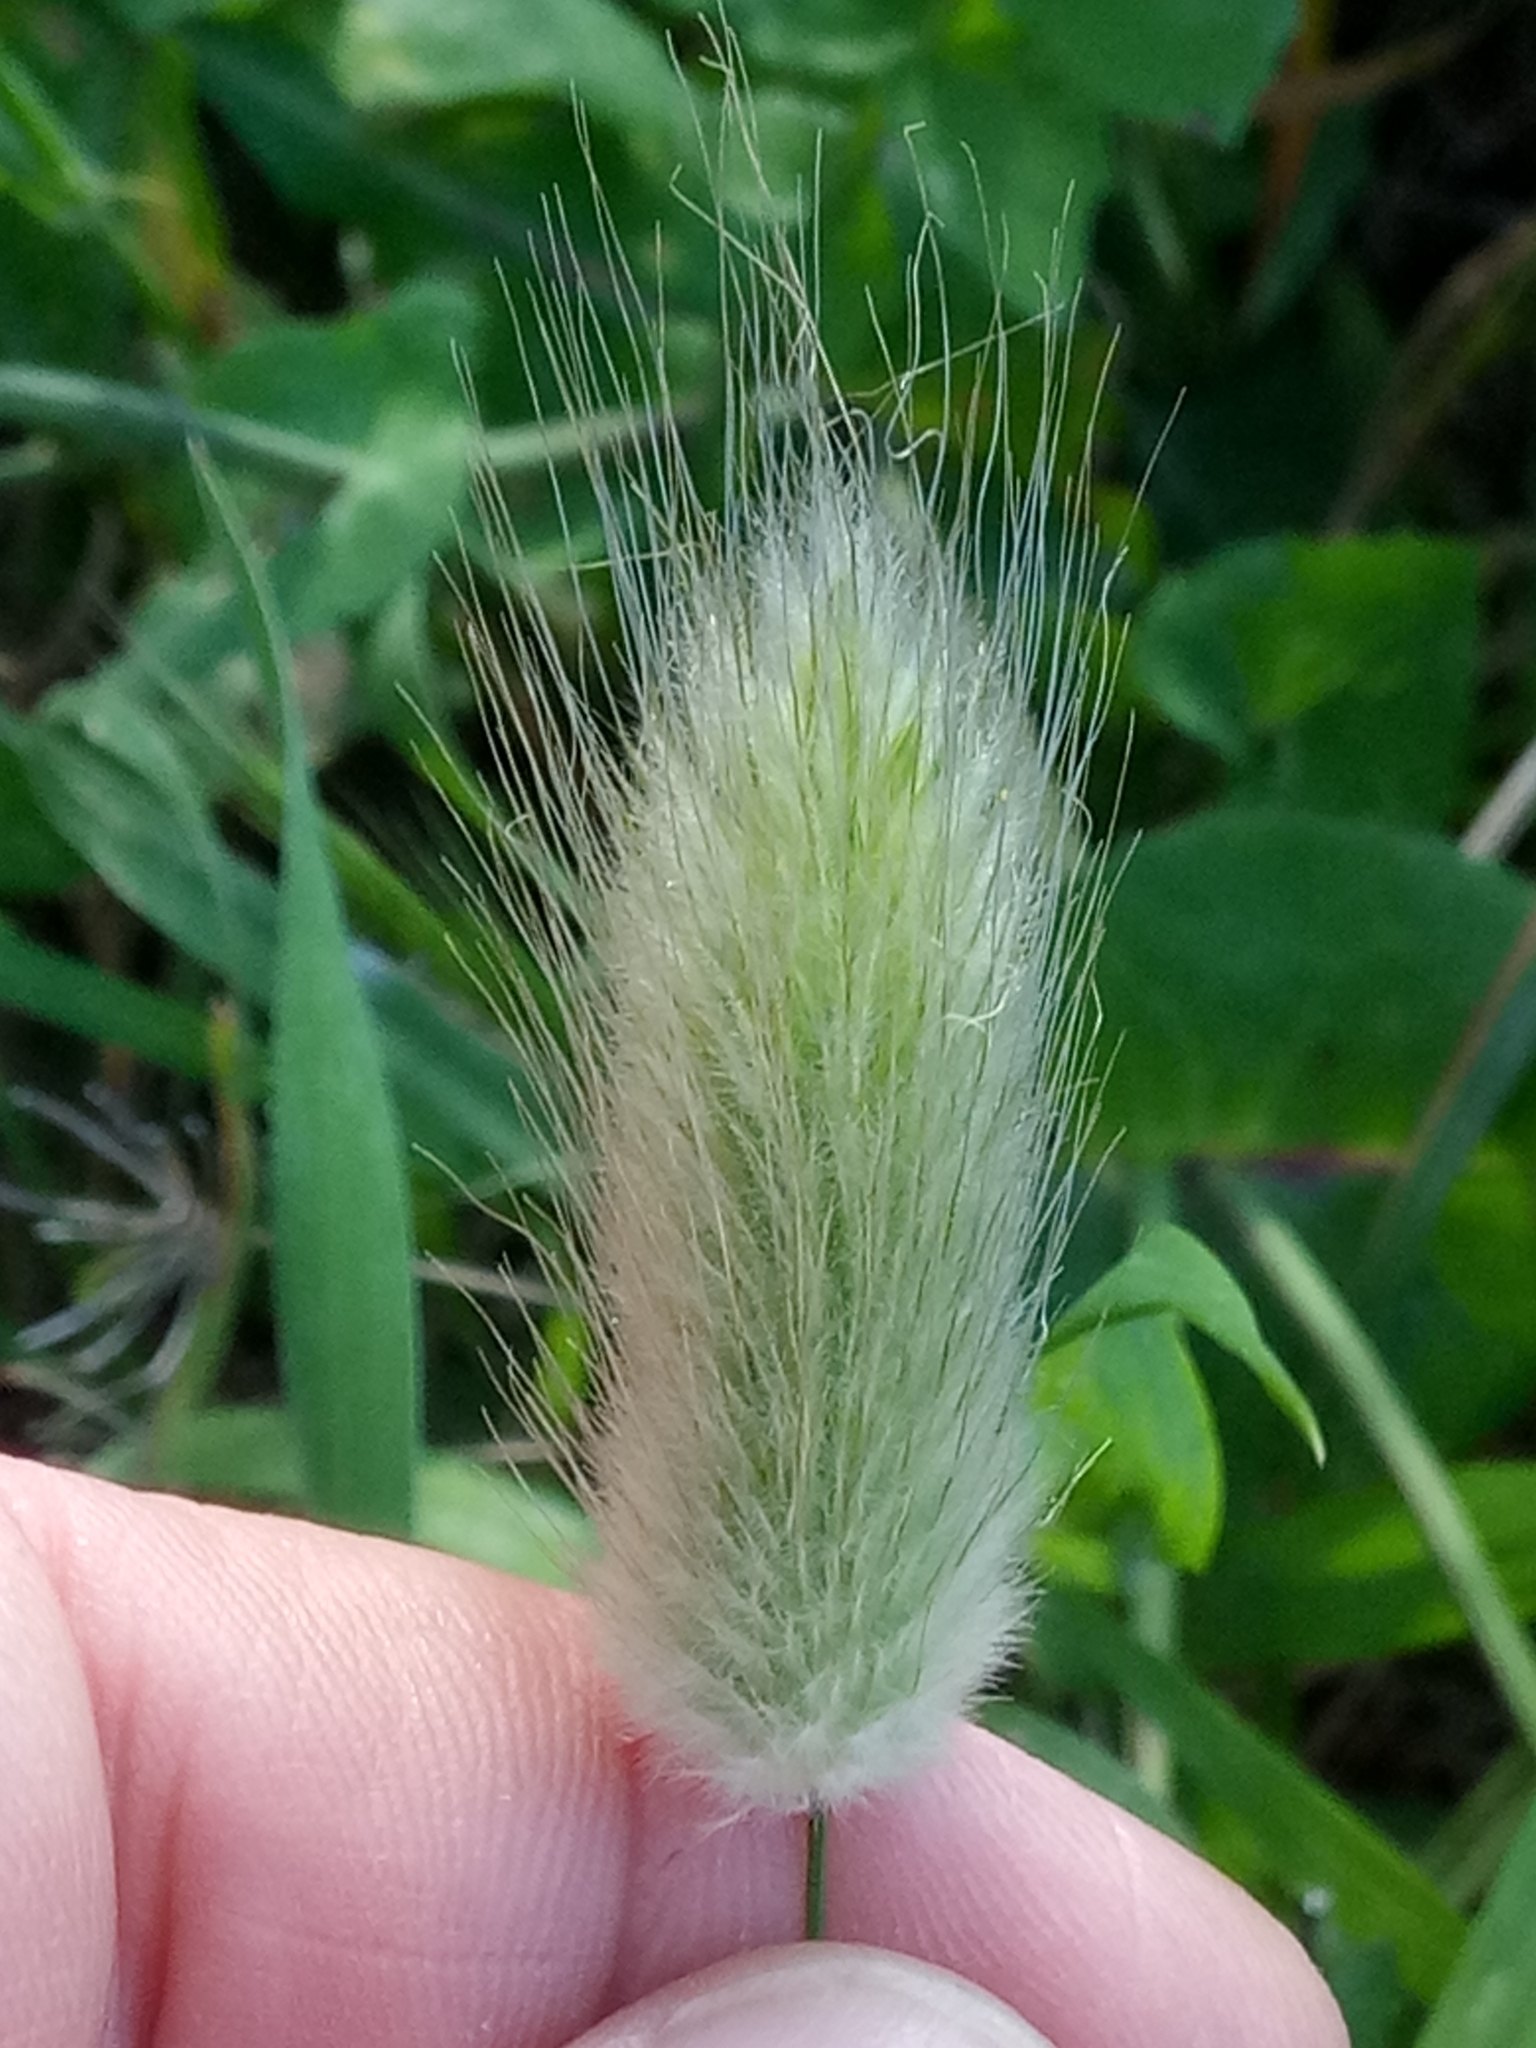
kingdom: Plantae
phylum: Tracheophyta
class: Liliopsida
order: Poales
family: Poaceae
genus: Lagurus
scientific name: Lagurus ovatus
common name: Hare's-tail
